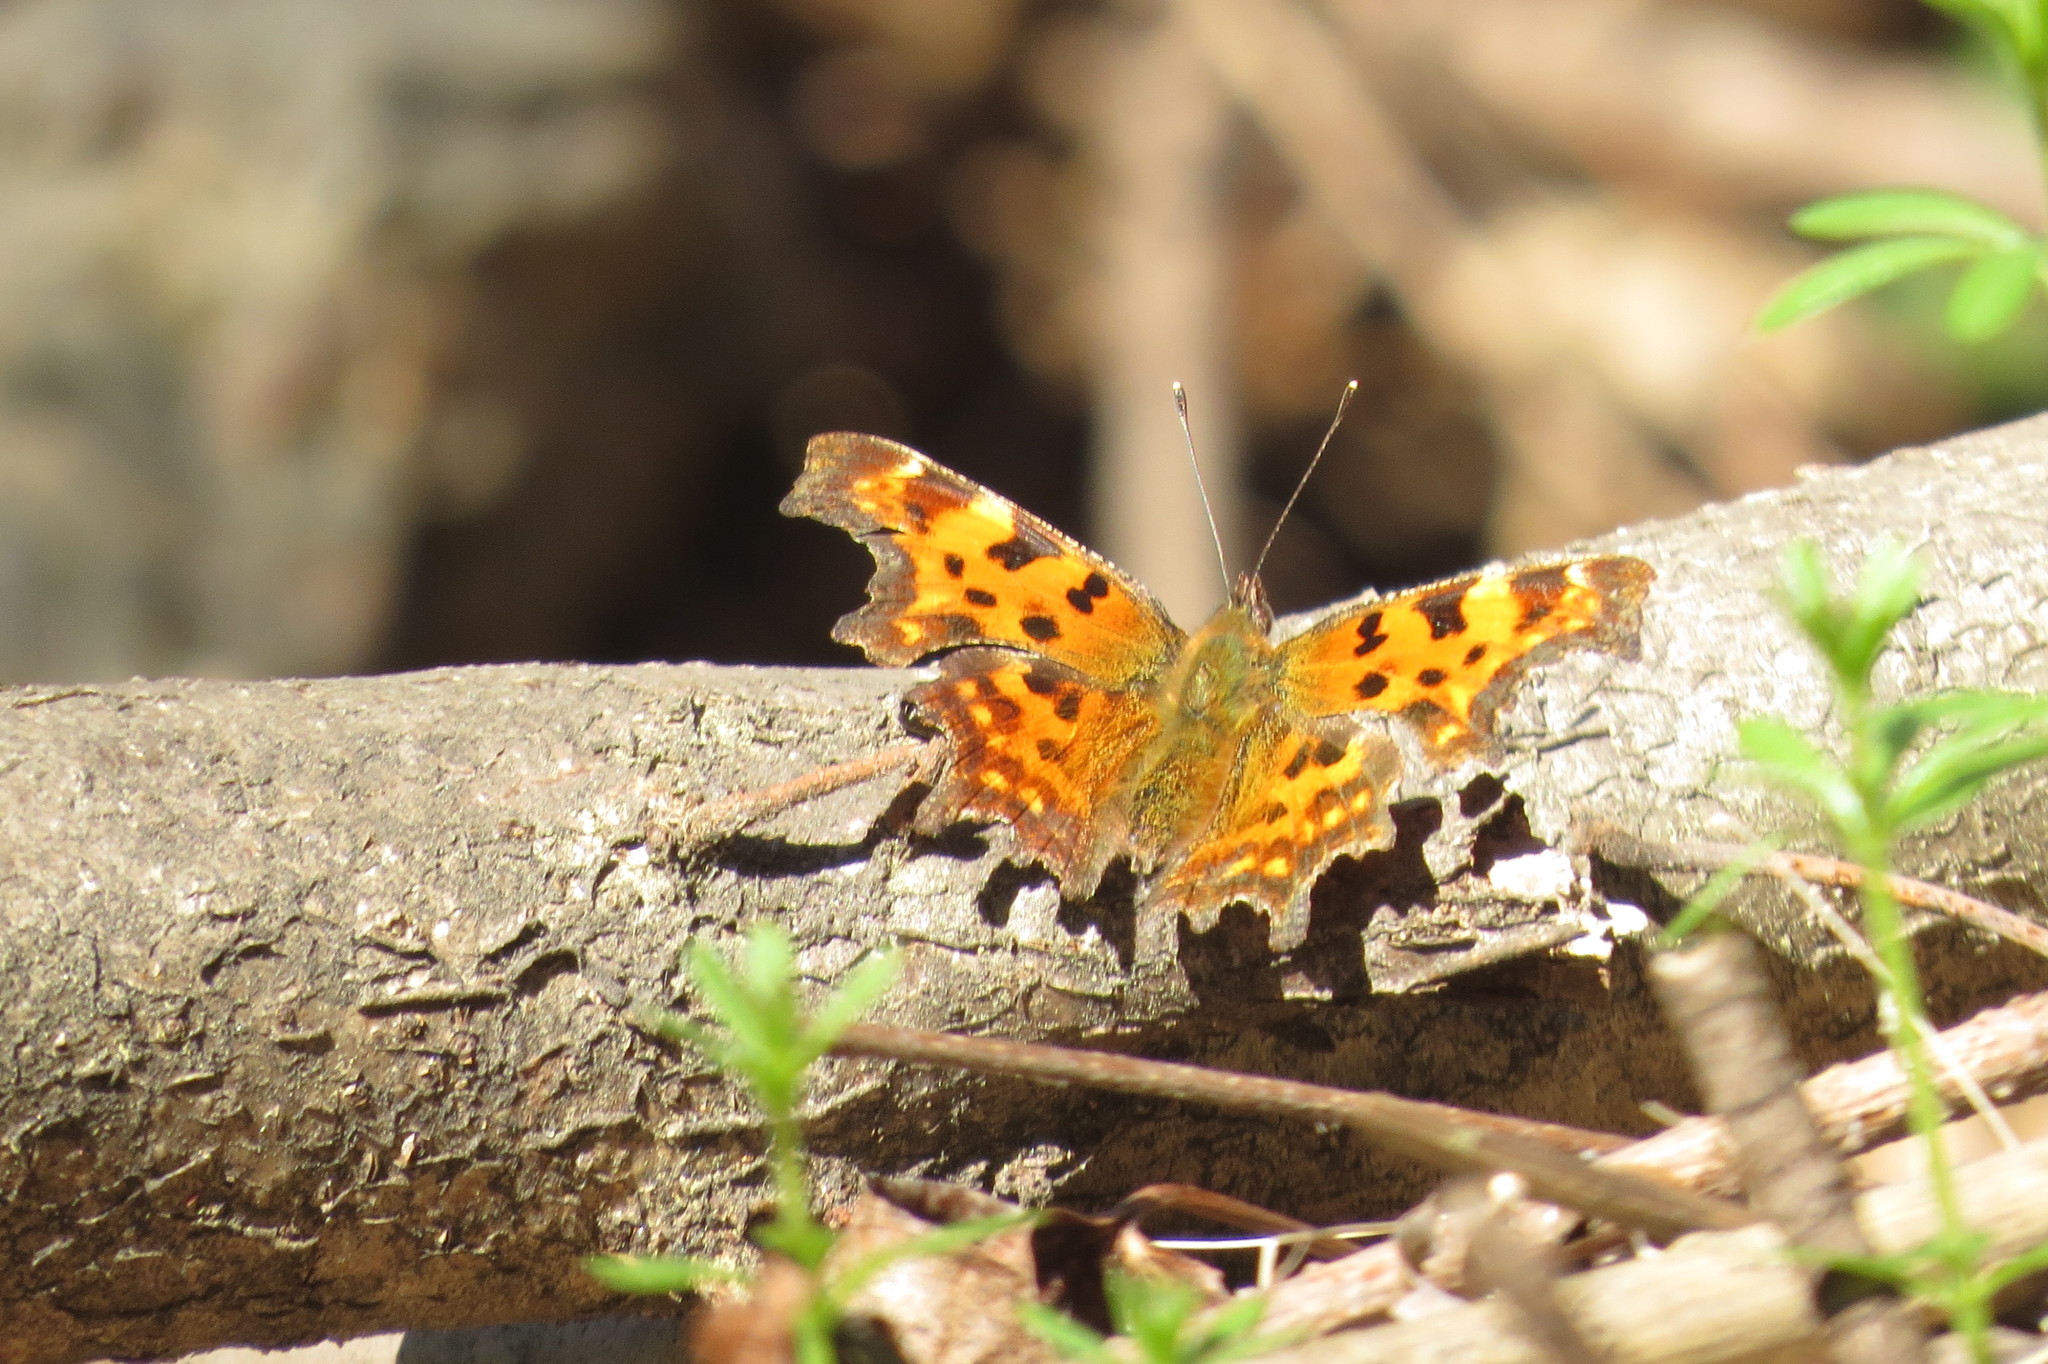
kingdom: Animalia
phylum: Arthropoda
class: Insecta
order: Lepidoptera
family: Nymphalidae
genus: Polygonia
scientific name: Polygonia c-album
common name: Comma
